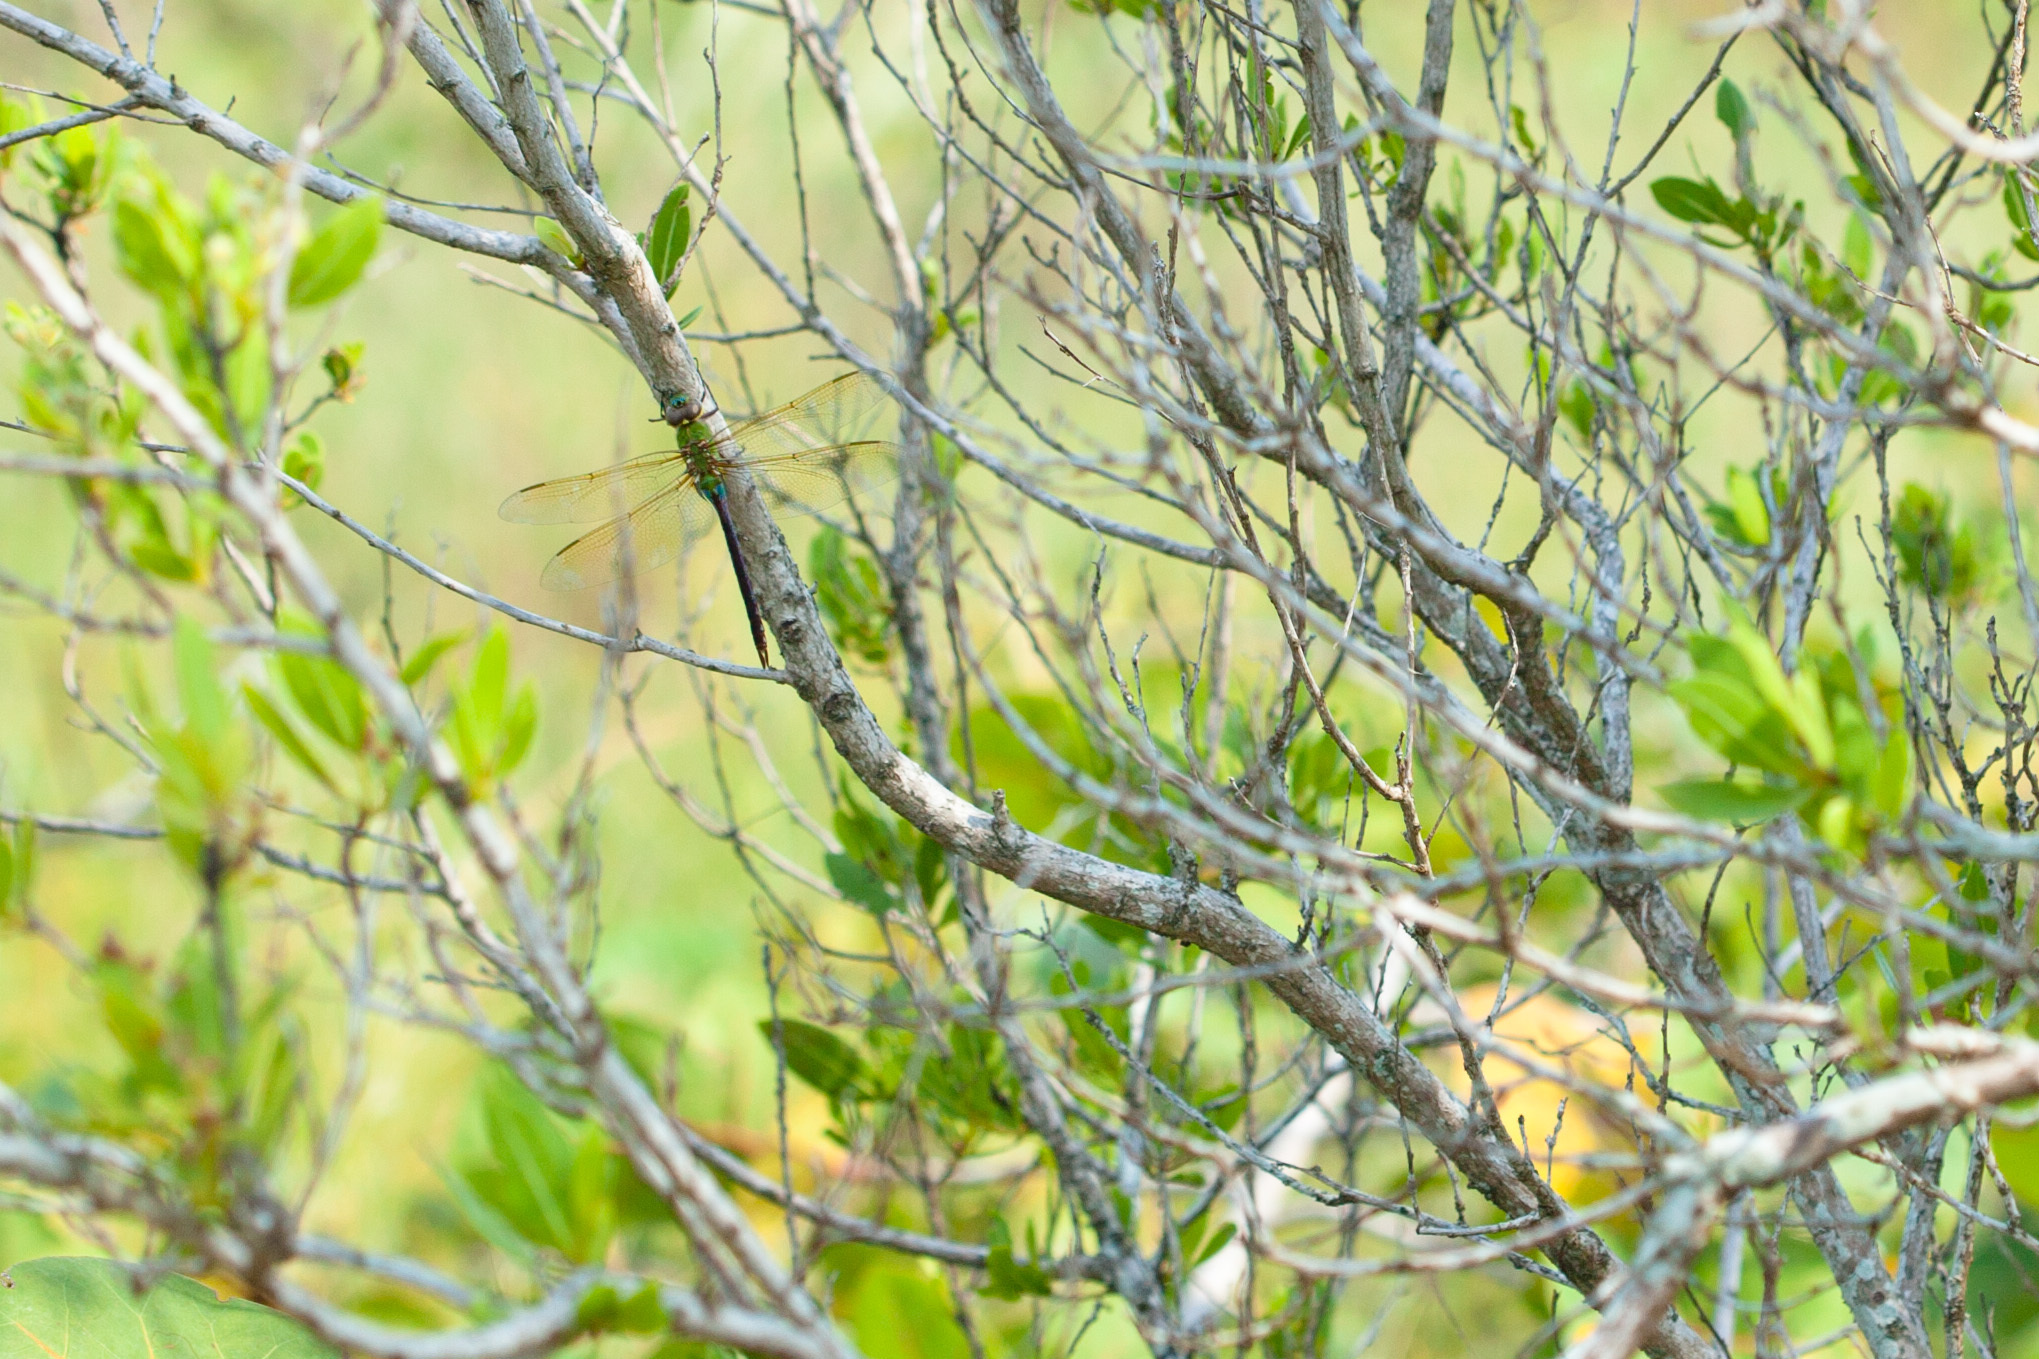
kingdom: Animalia
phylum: Arthropoda
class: Insecta
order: Odonata
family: Aeshnidae
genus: Anax
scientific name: Anax junius
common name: Common green darner
